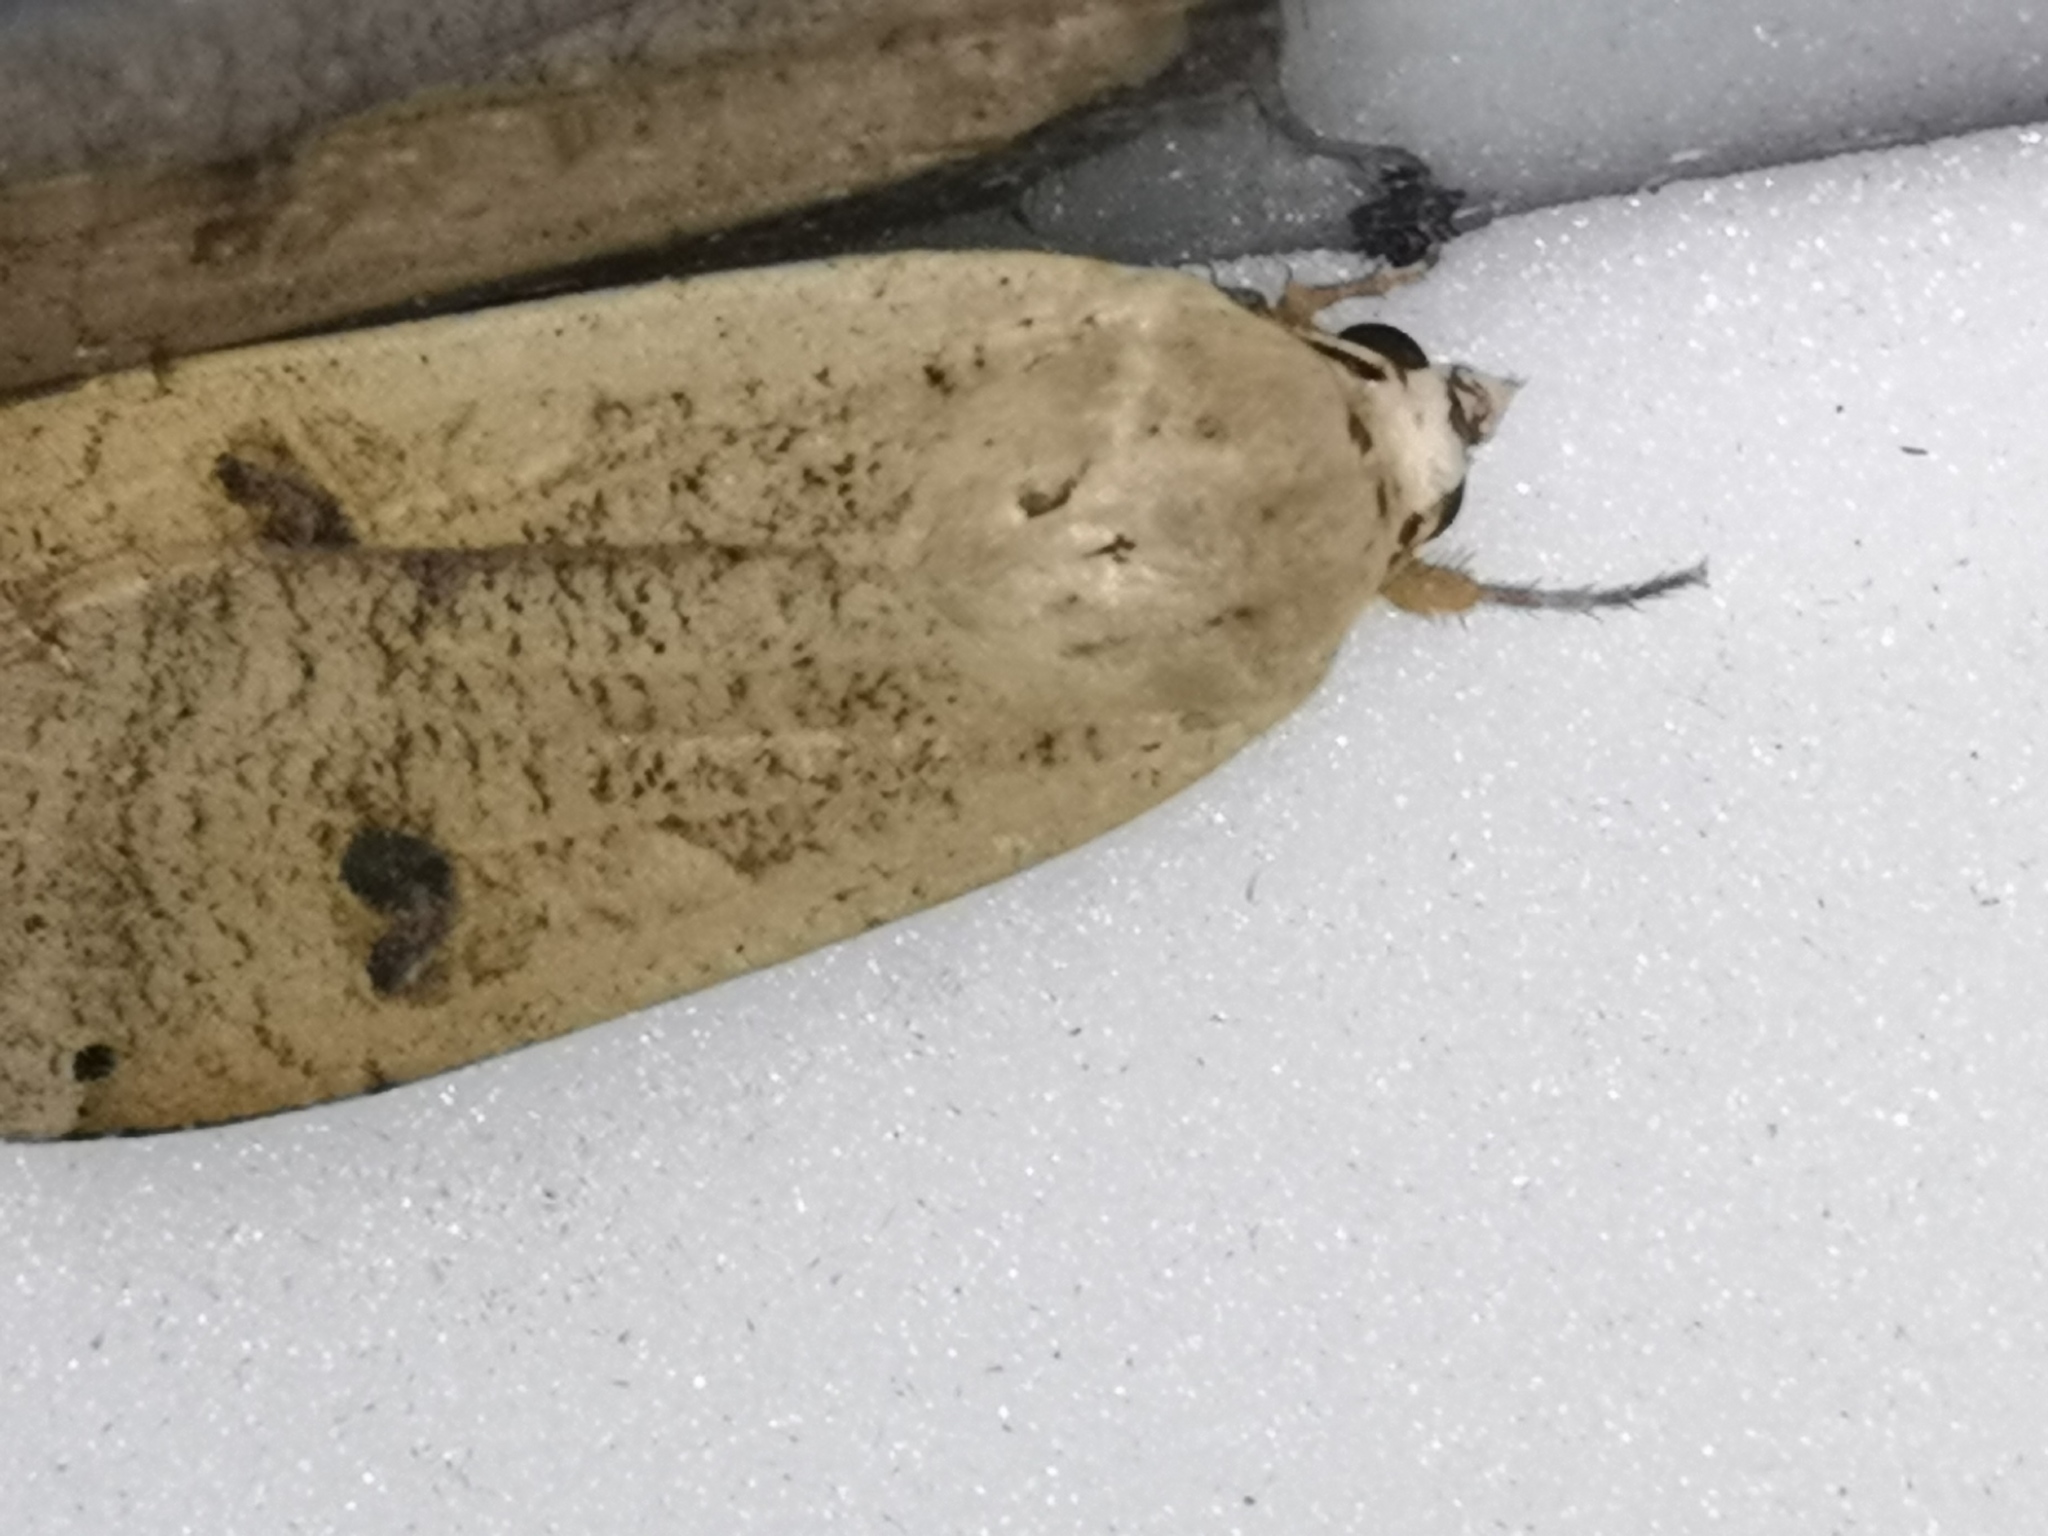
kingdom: Animalia
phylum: Arthropoda
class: Insecta
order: Lepidoptera
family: Noctuidae
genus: Noctua
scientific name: Noctua pronuba
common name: Large yellow underwing
